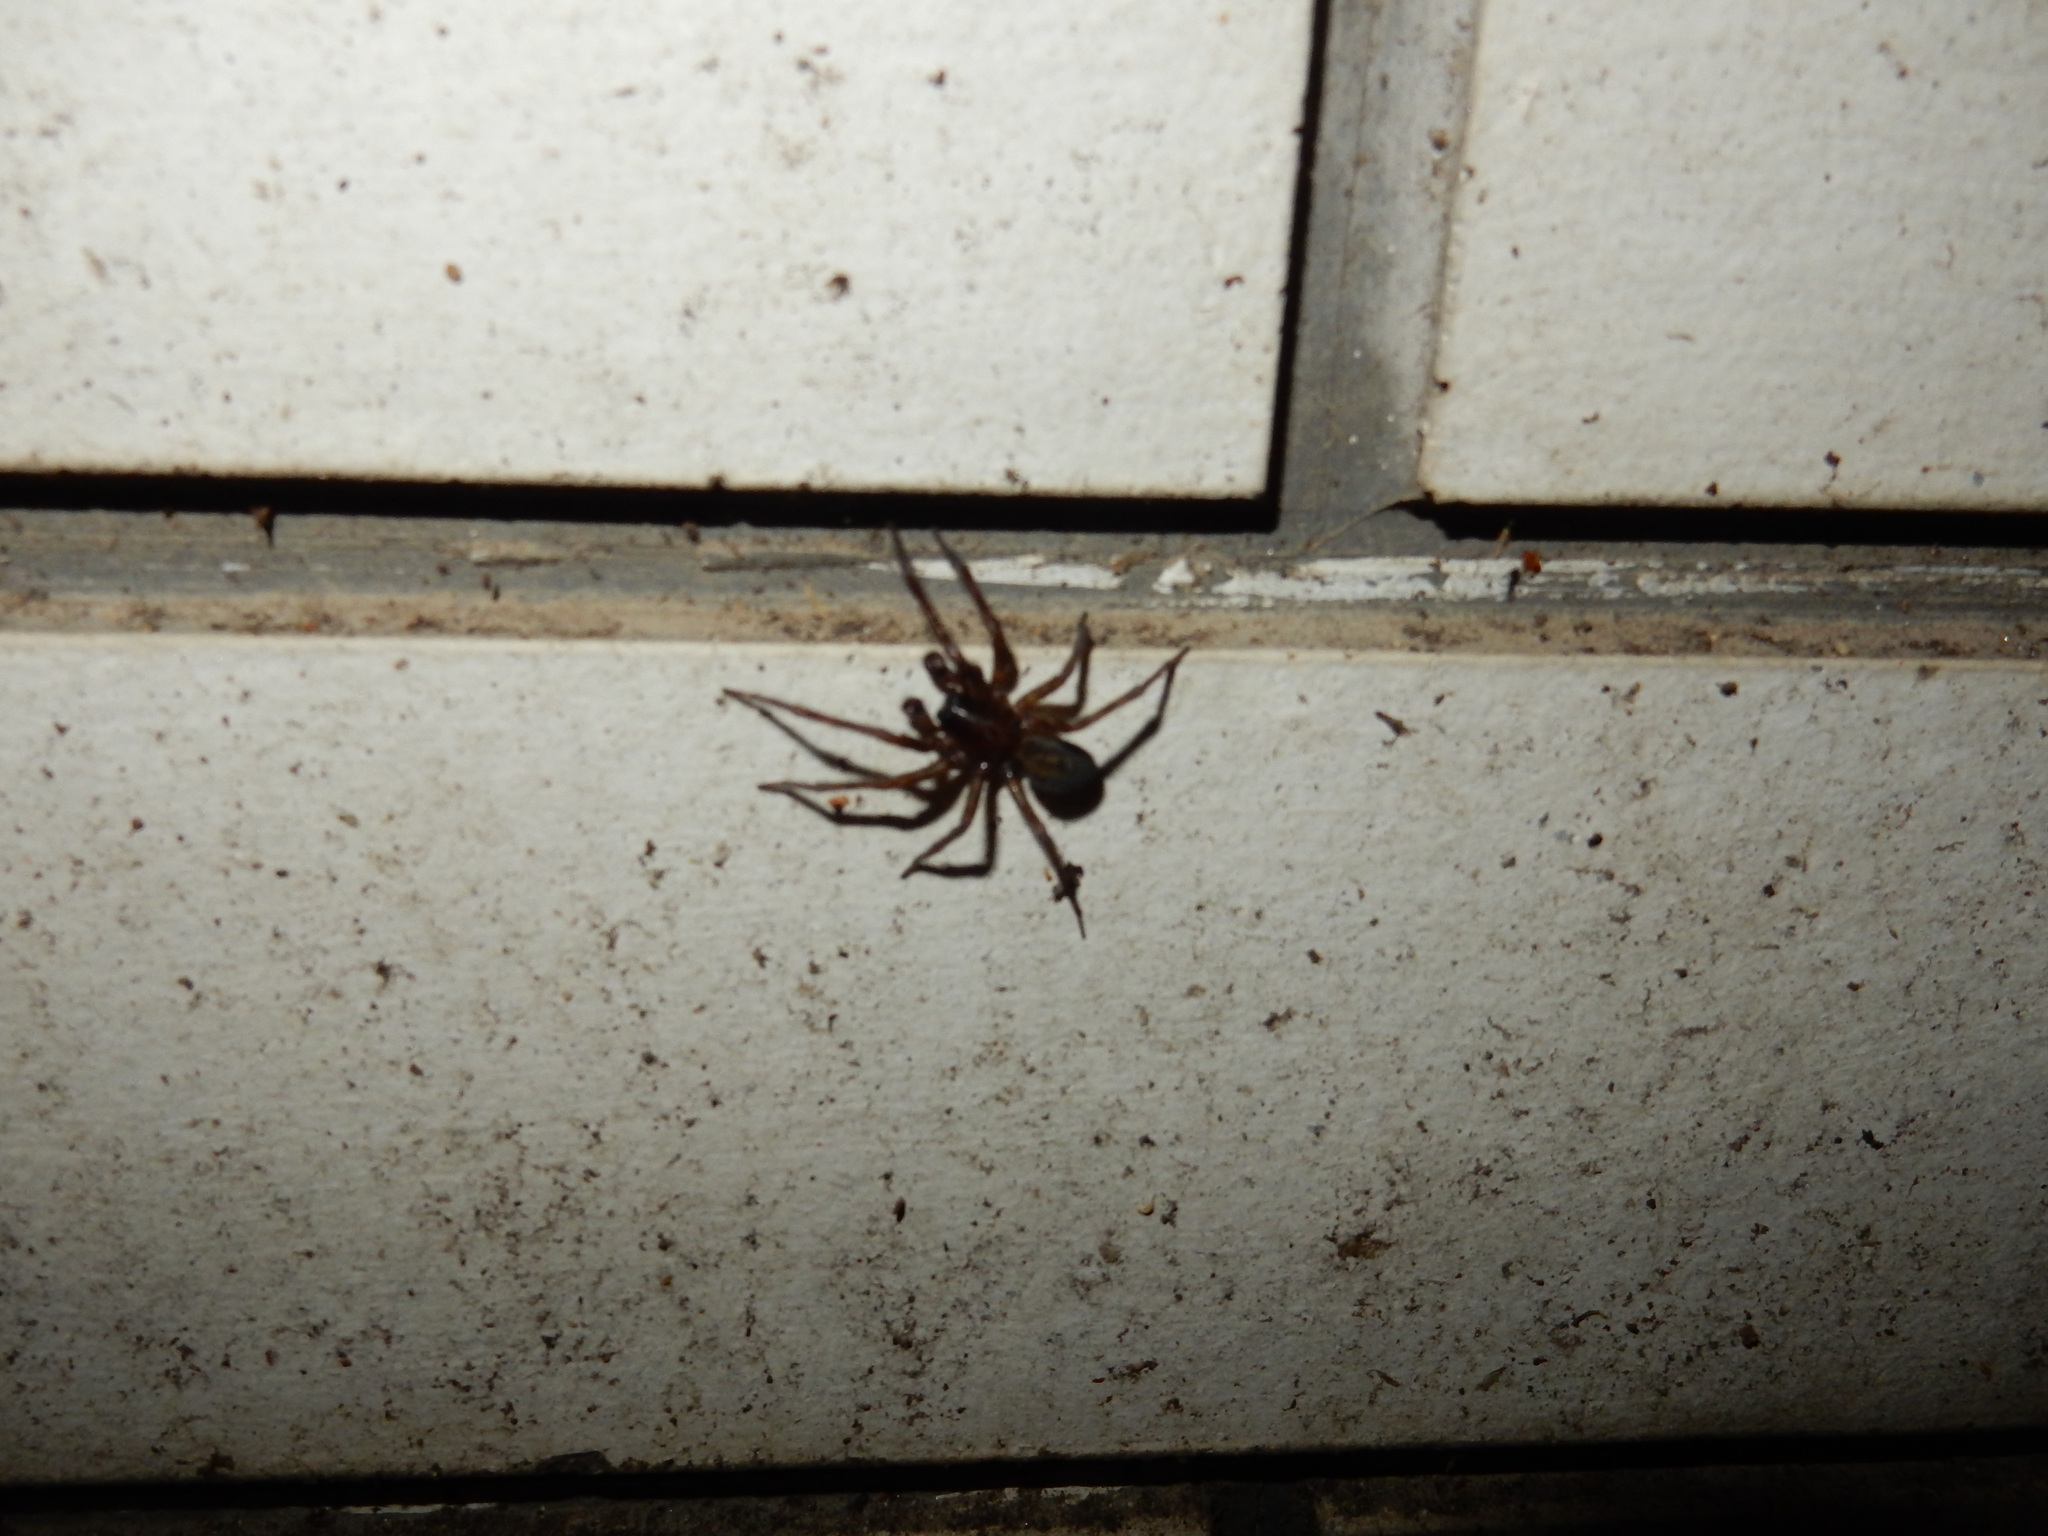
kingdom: Animalia
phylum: Arthropoda
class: Arachnida
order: Araneae
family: Amaurobiidae
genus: Amaurobius
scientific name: Amaurobius ferox
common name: Black laceweaver
